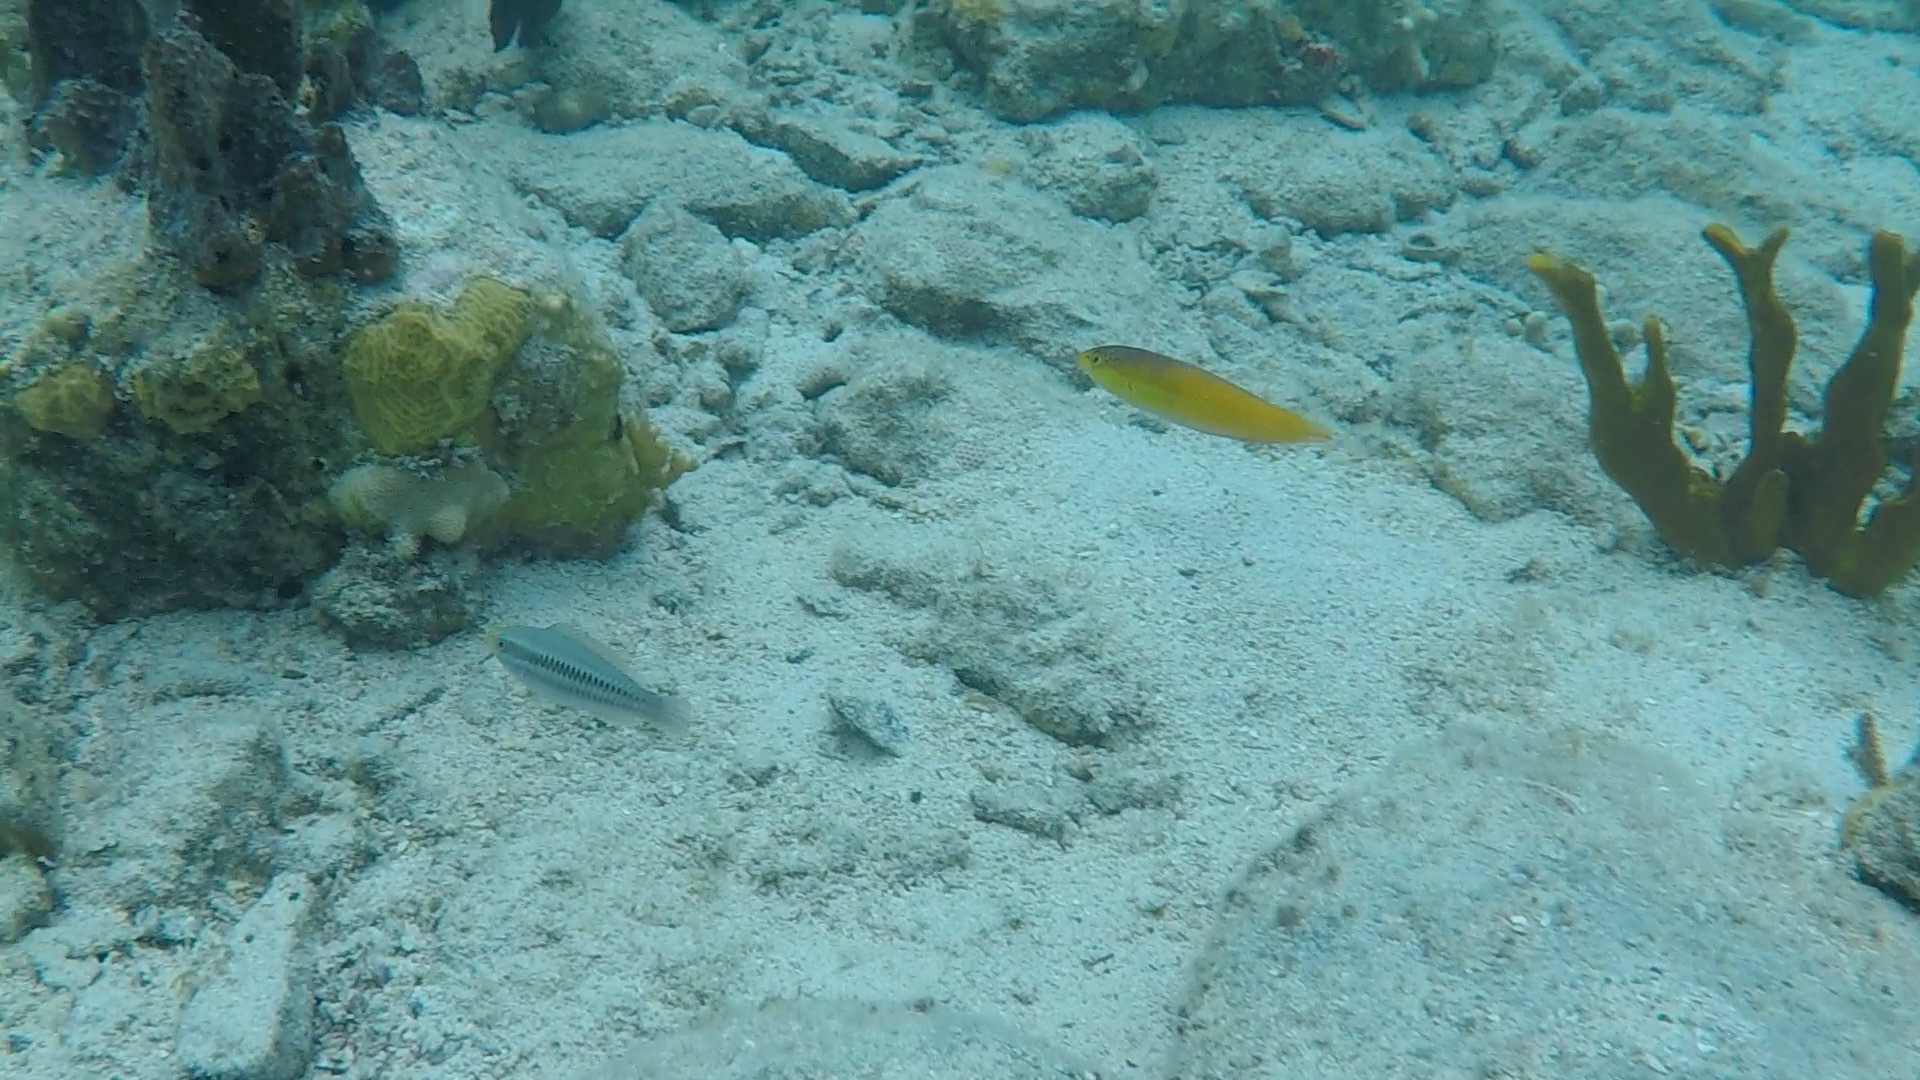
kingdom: Animalia
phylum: Chordata
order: Perciformes
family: Labridae
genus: Halichoeres
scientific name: Halichoeres garnoti
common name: Yellowhead wrasse
